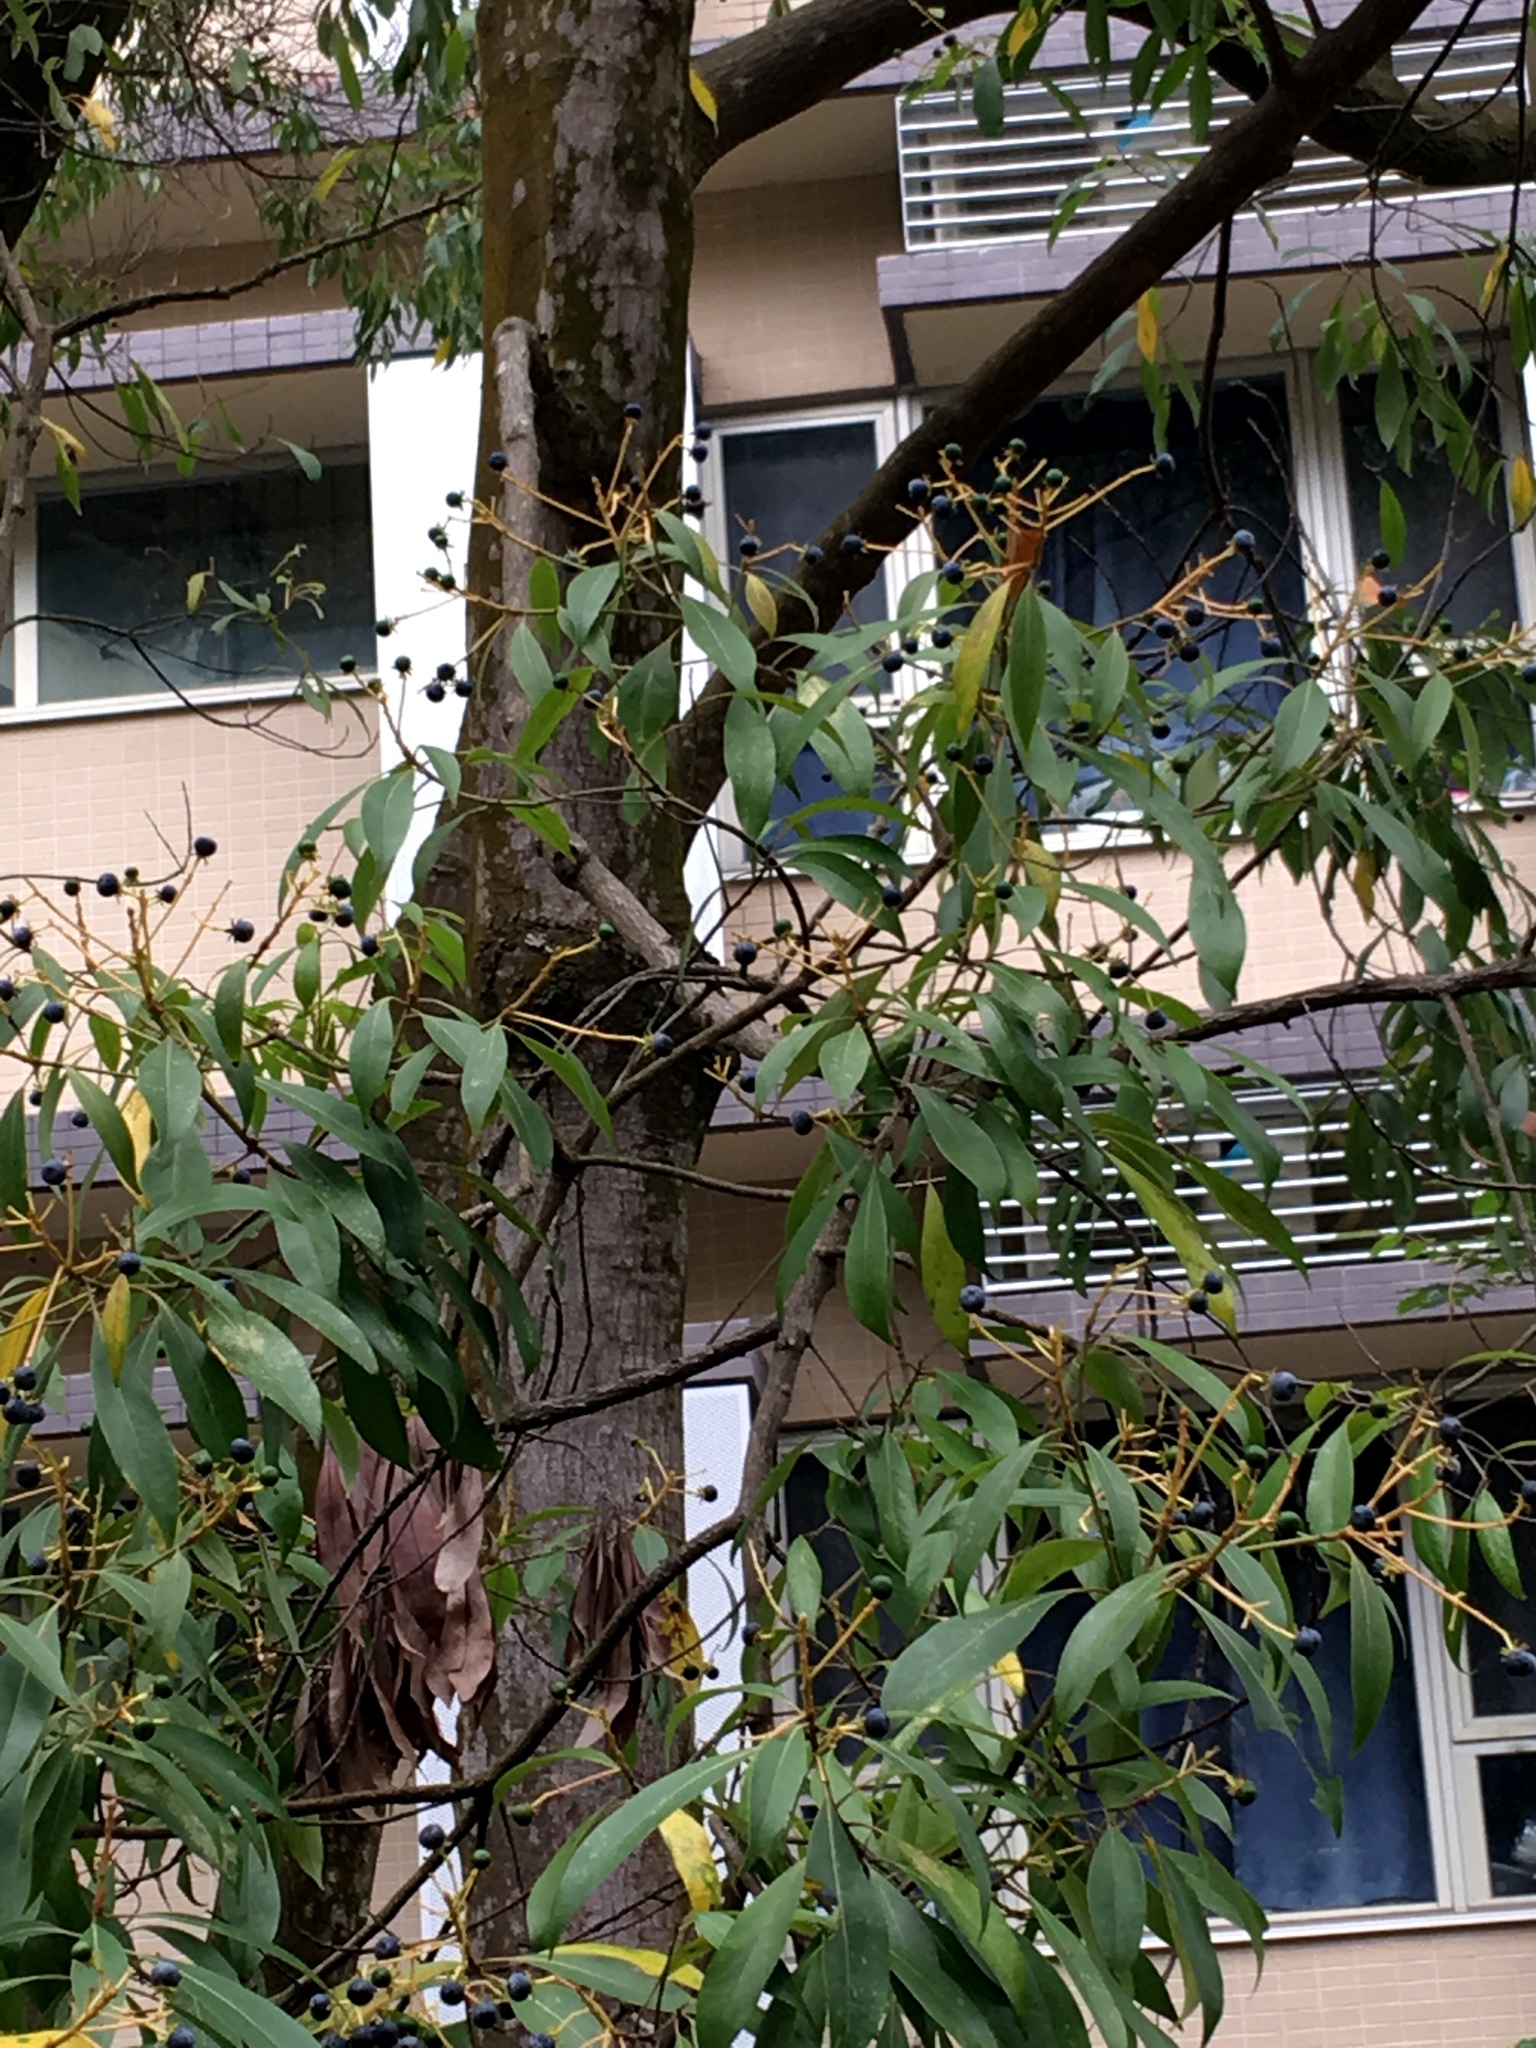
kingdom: Plantae
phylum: Tracheophyta
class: Magnoliopsida
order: Laurales
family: Lauraceae
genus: Machilus
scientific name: Machilus gamblei
